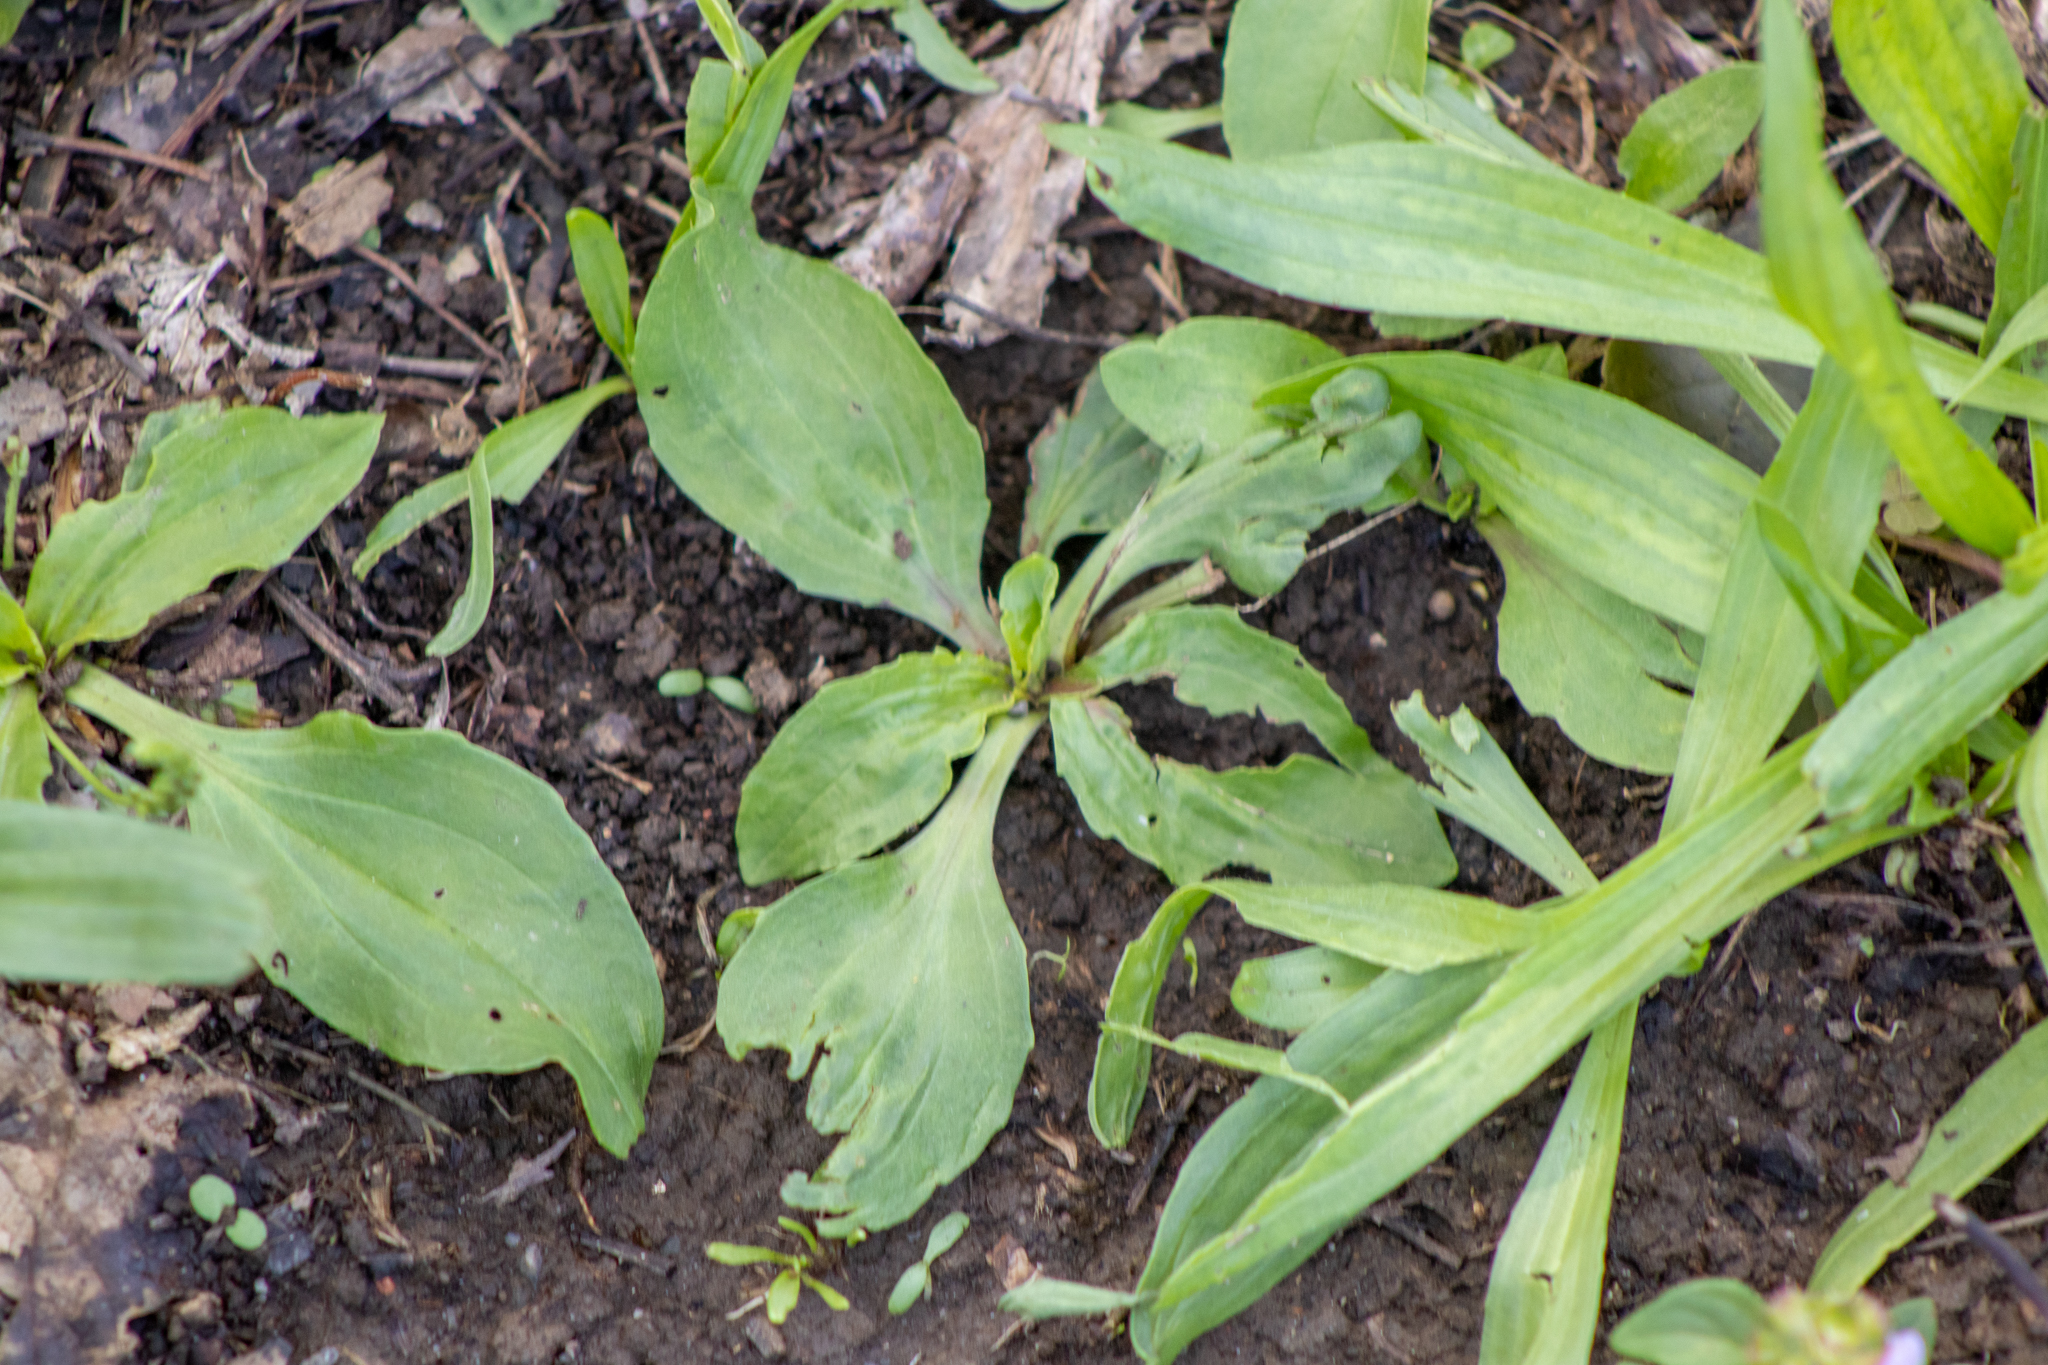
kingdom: Plantae
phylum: Tracheophyta
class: Magnoliopsida
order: Lamiales
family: Plantaginaceae
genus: Plantago
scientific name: Plantago rugelii
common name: American plantain
